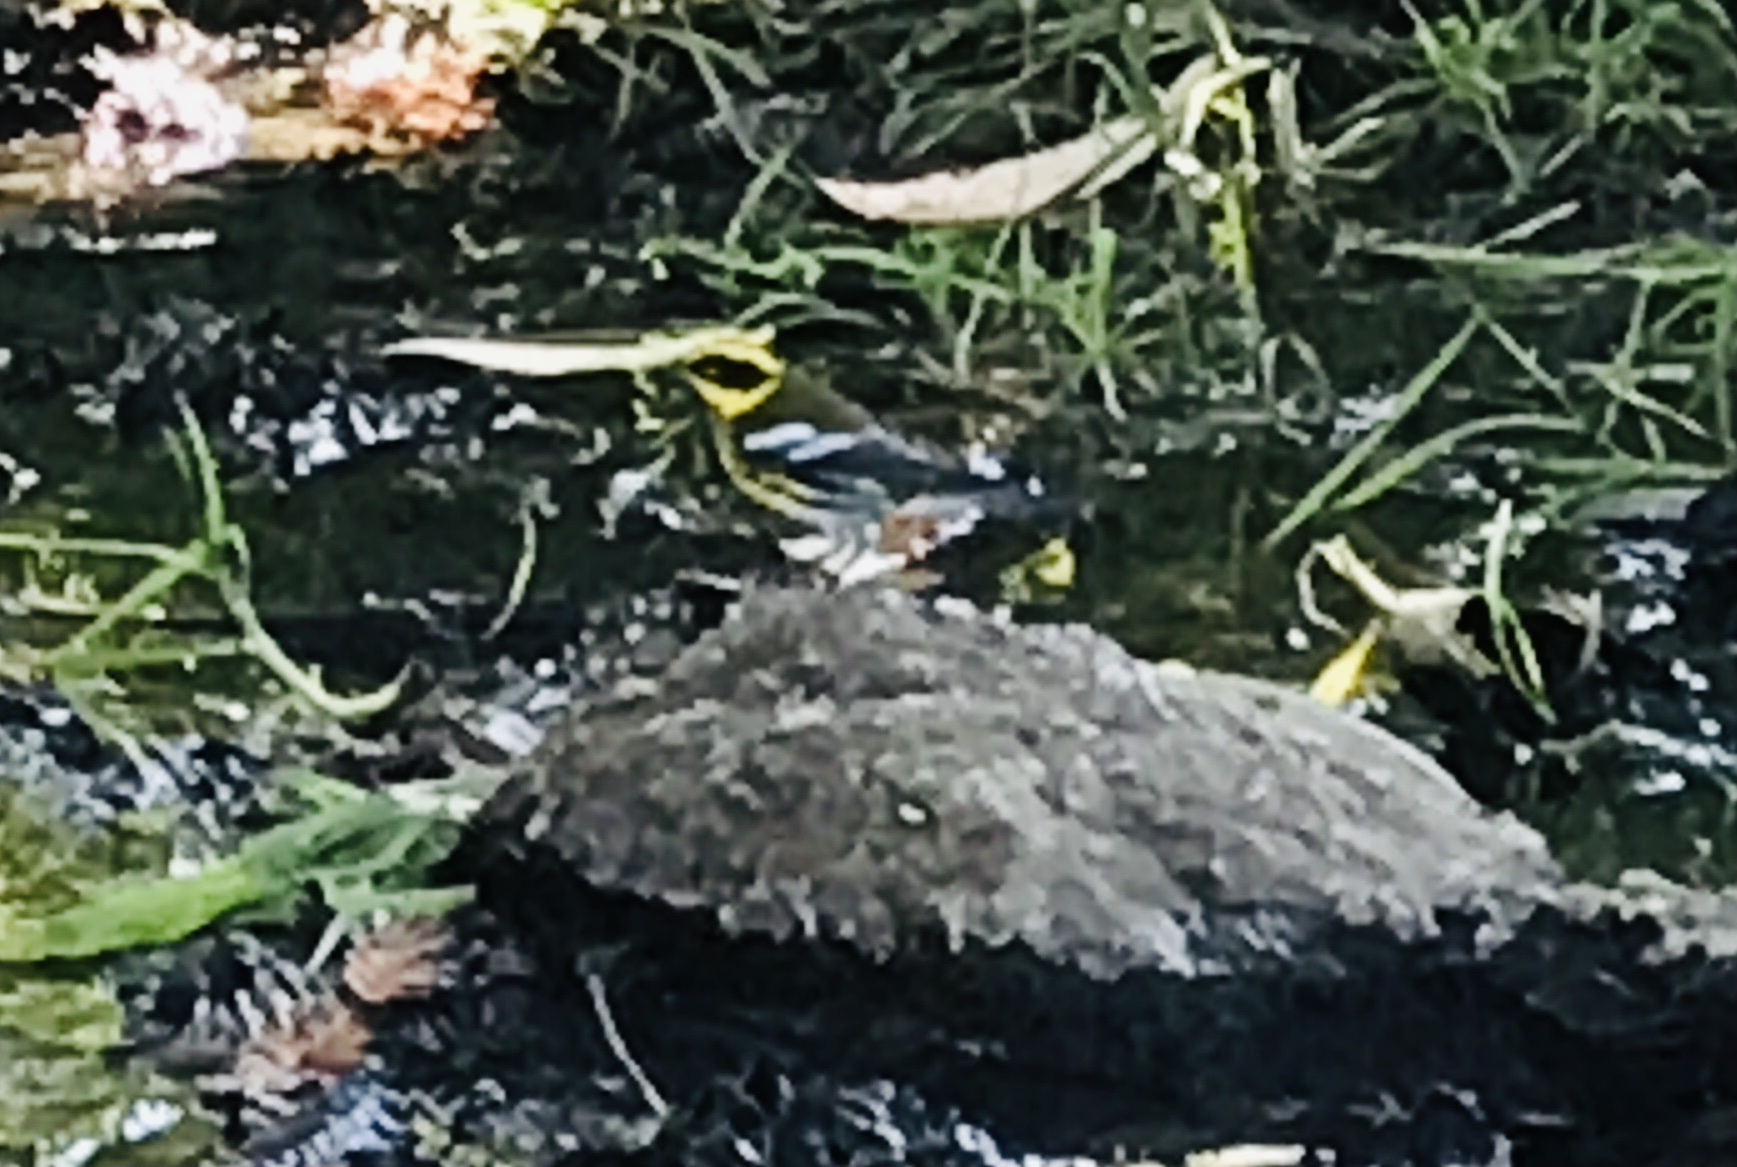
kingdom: Animalia
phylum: Chordata
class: Aves
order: Passeriformes
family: Parulidae
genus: Setophaga
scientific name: Setophaga townsendi
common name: Townsend's warbler
